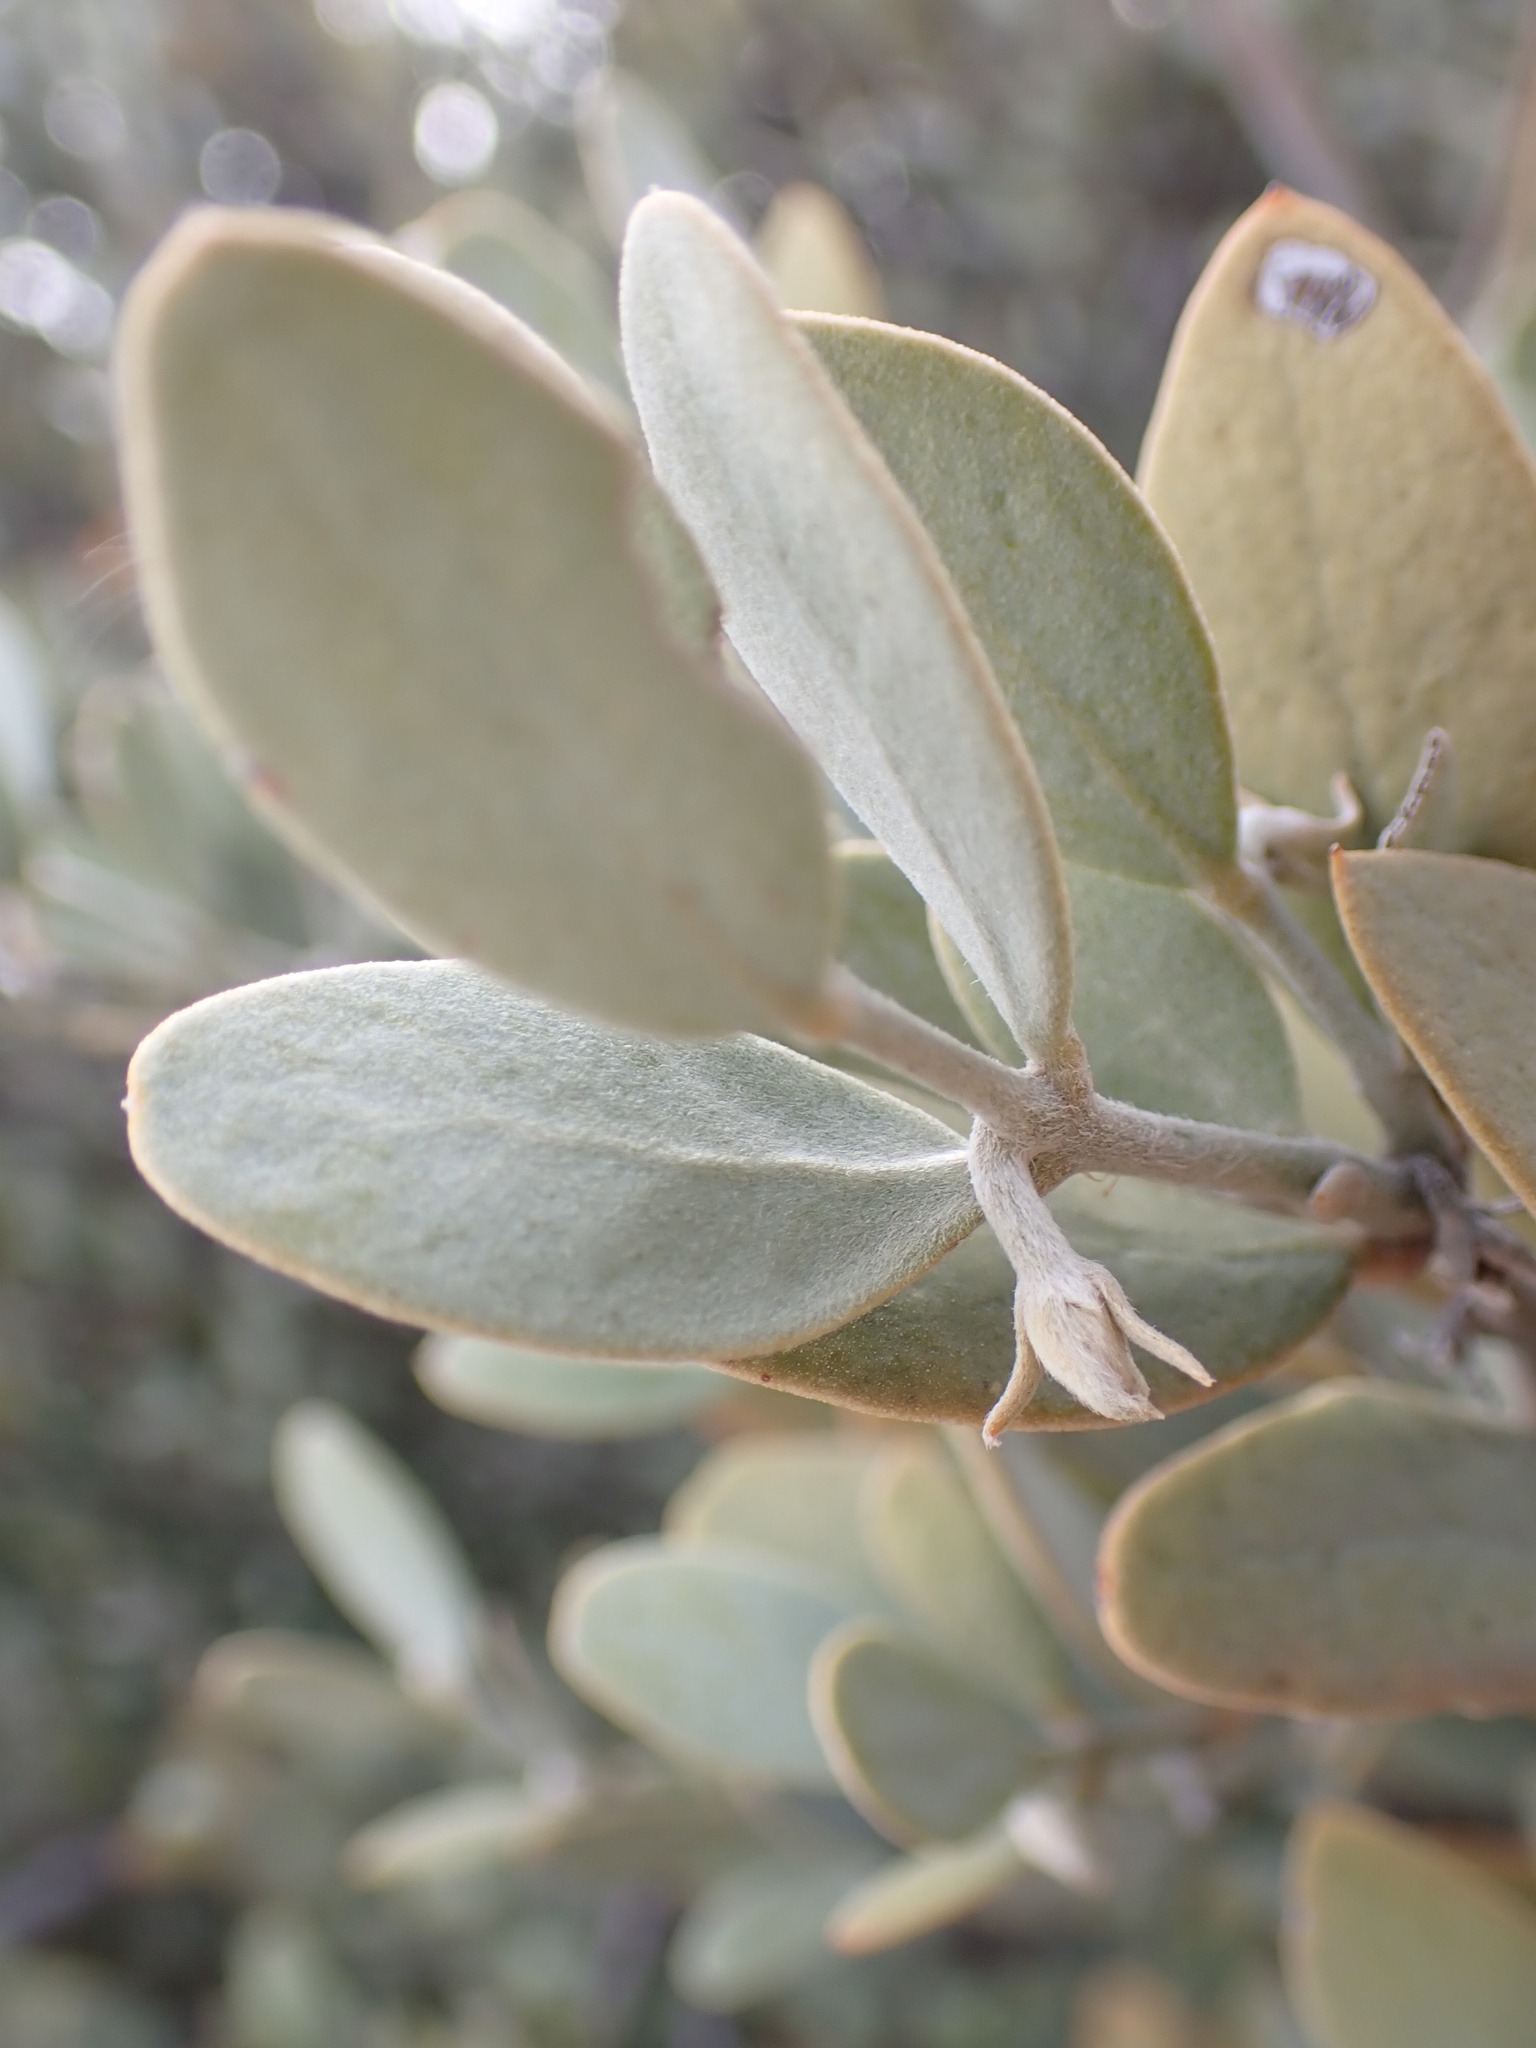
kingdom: Plantae
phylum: Tracheophyta
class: Magnoliopsida
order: Caryophyllales
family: Simmondsiaceae
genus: Simmondsia
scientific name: Simmondsia chinensis
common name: Jojoba
